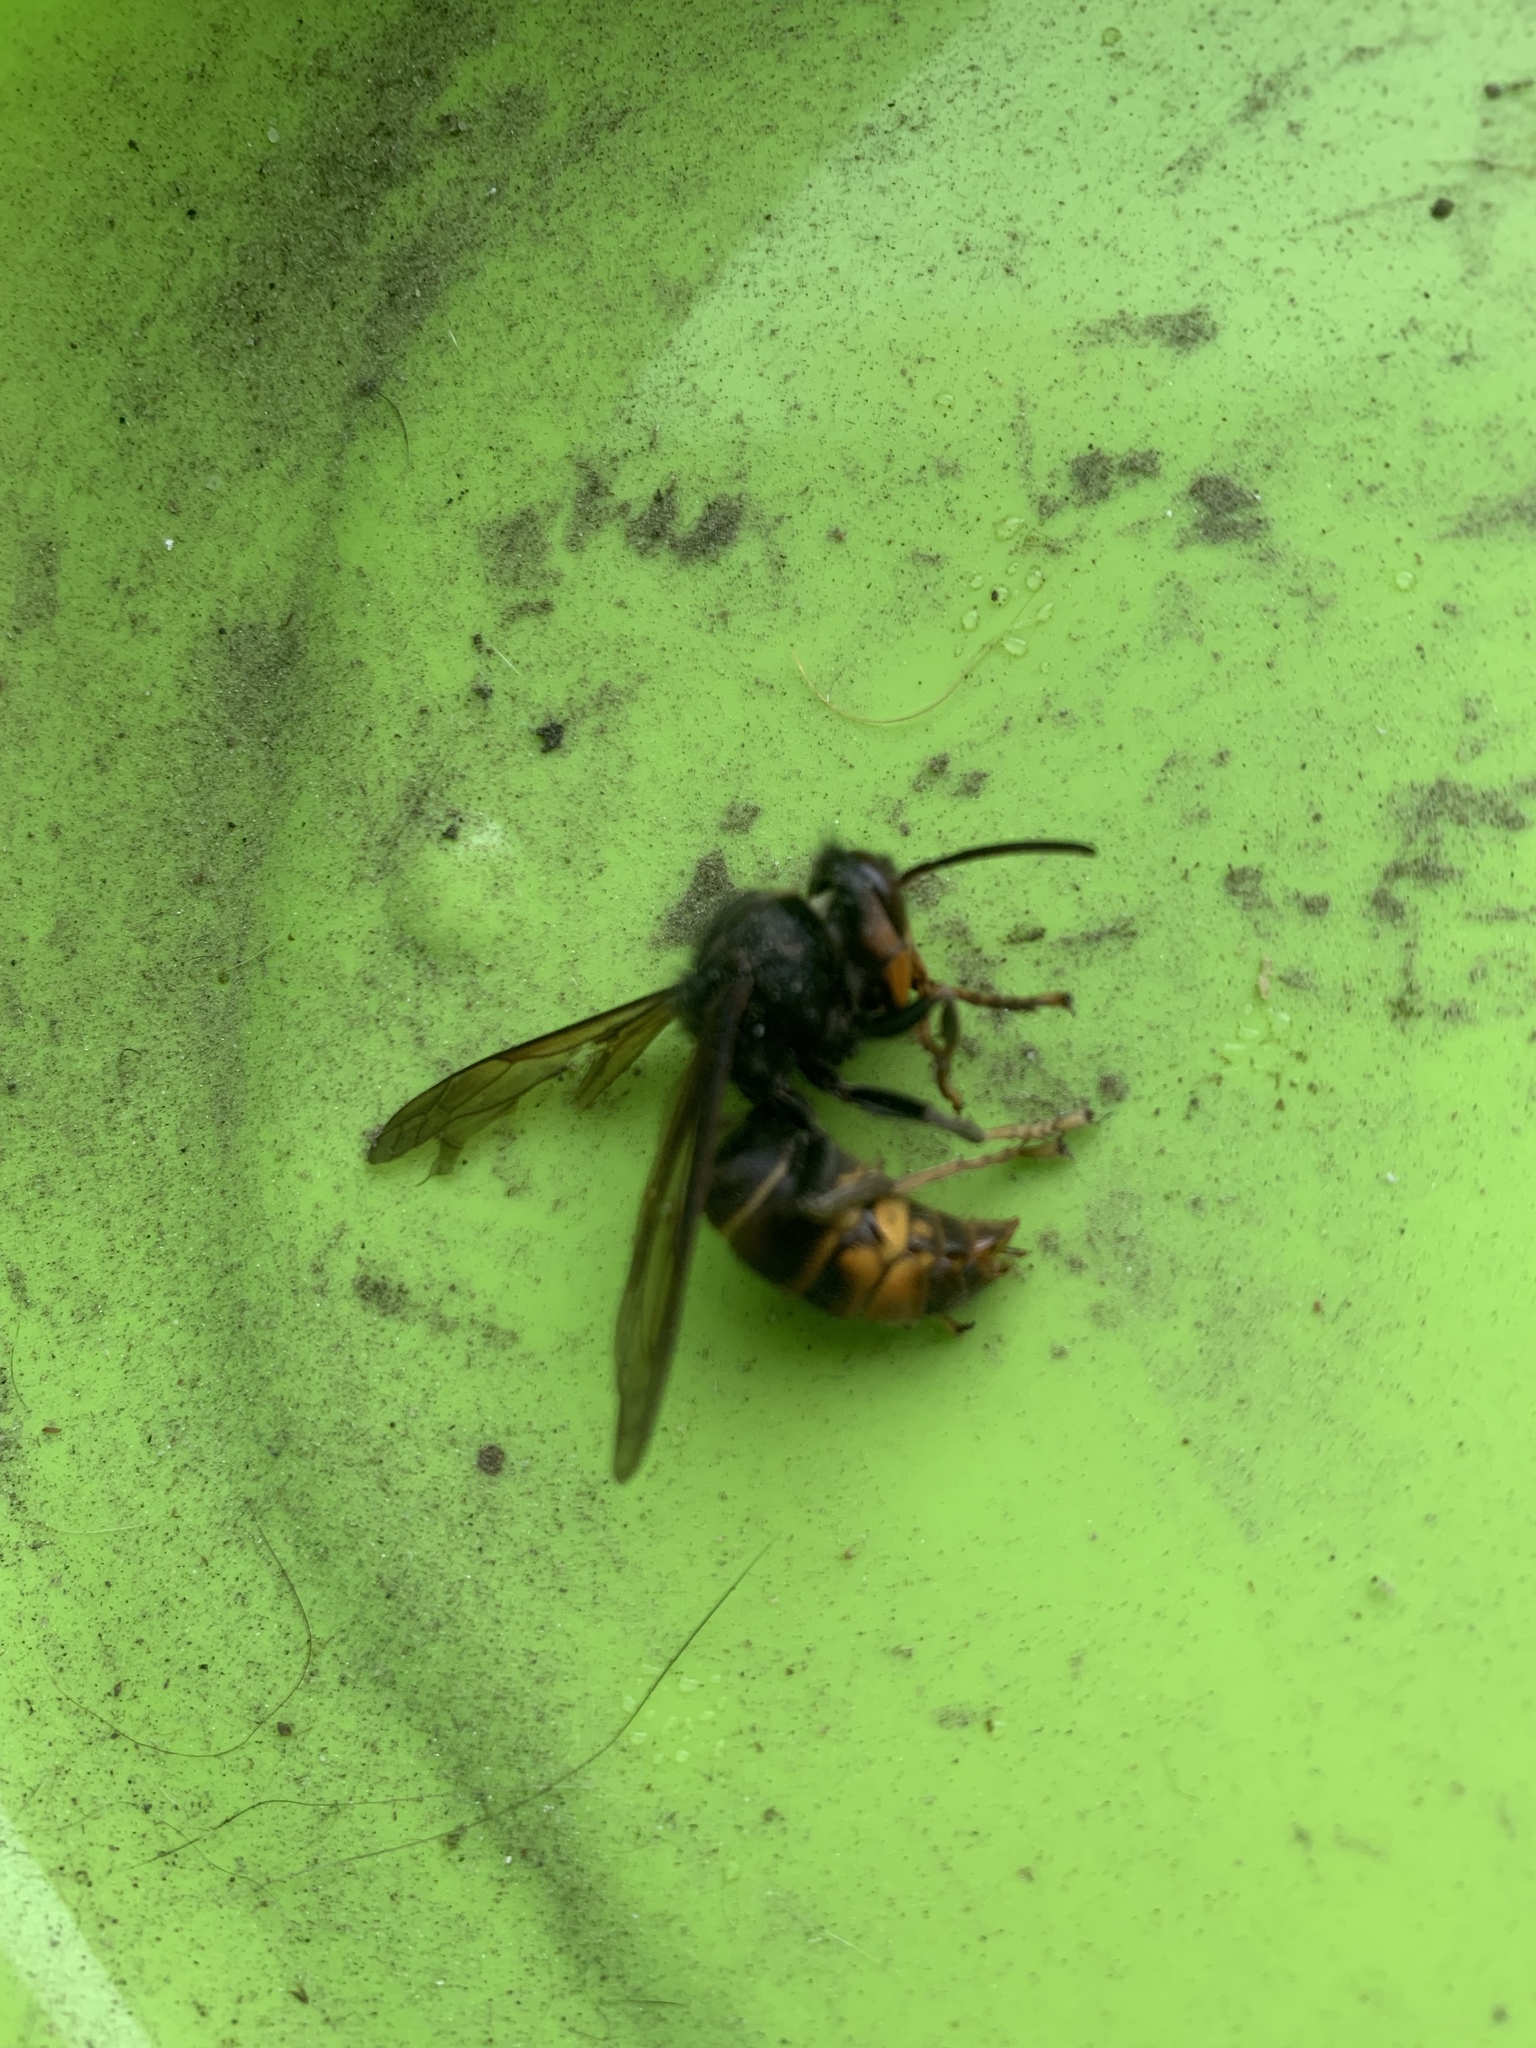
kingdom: Animalia
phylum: Arthropoda
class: Insecta
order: Hymenoptera
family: Vespidae
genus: Vespa
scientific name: Vespa velutina
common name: Asian hornet
